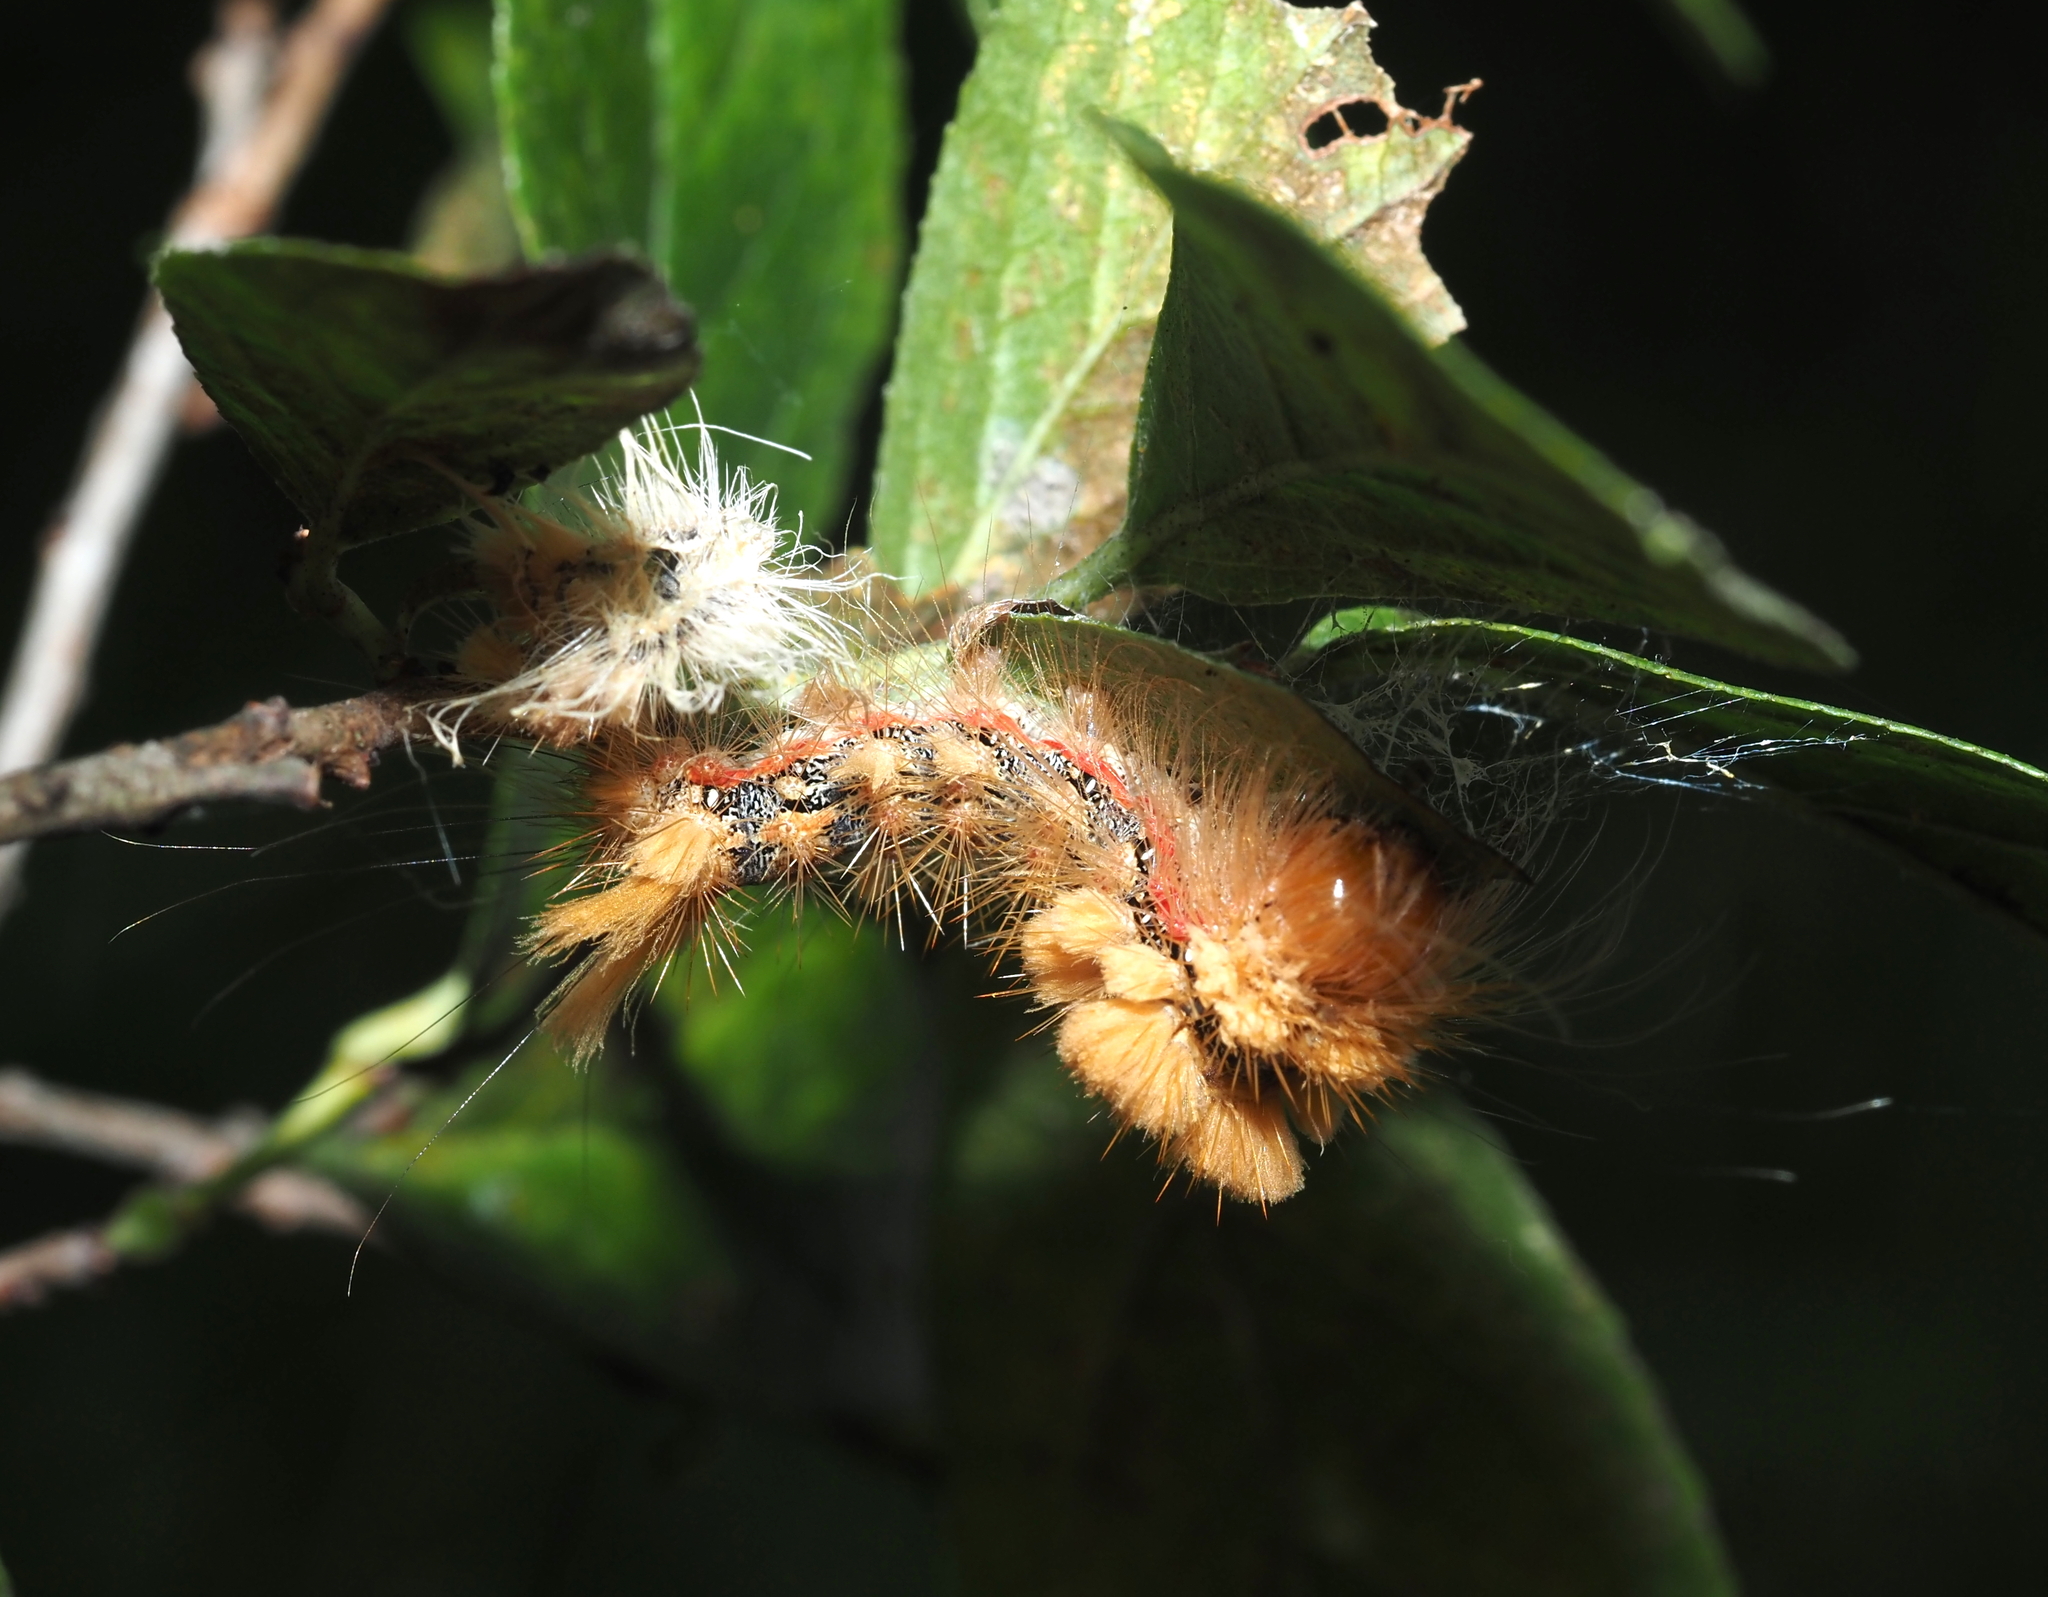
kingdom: Animalia
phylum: Arthropoda
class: Insecta
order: Lepidoptera
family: Noctuidae
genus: Acronicta
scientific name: Acronicta impleta
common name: Powdered dagger
